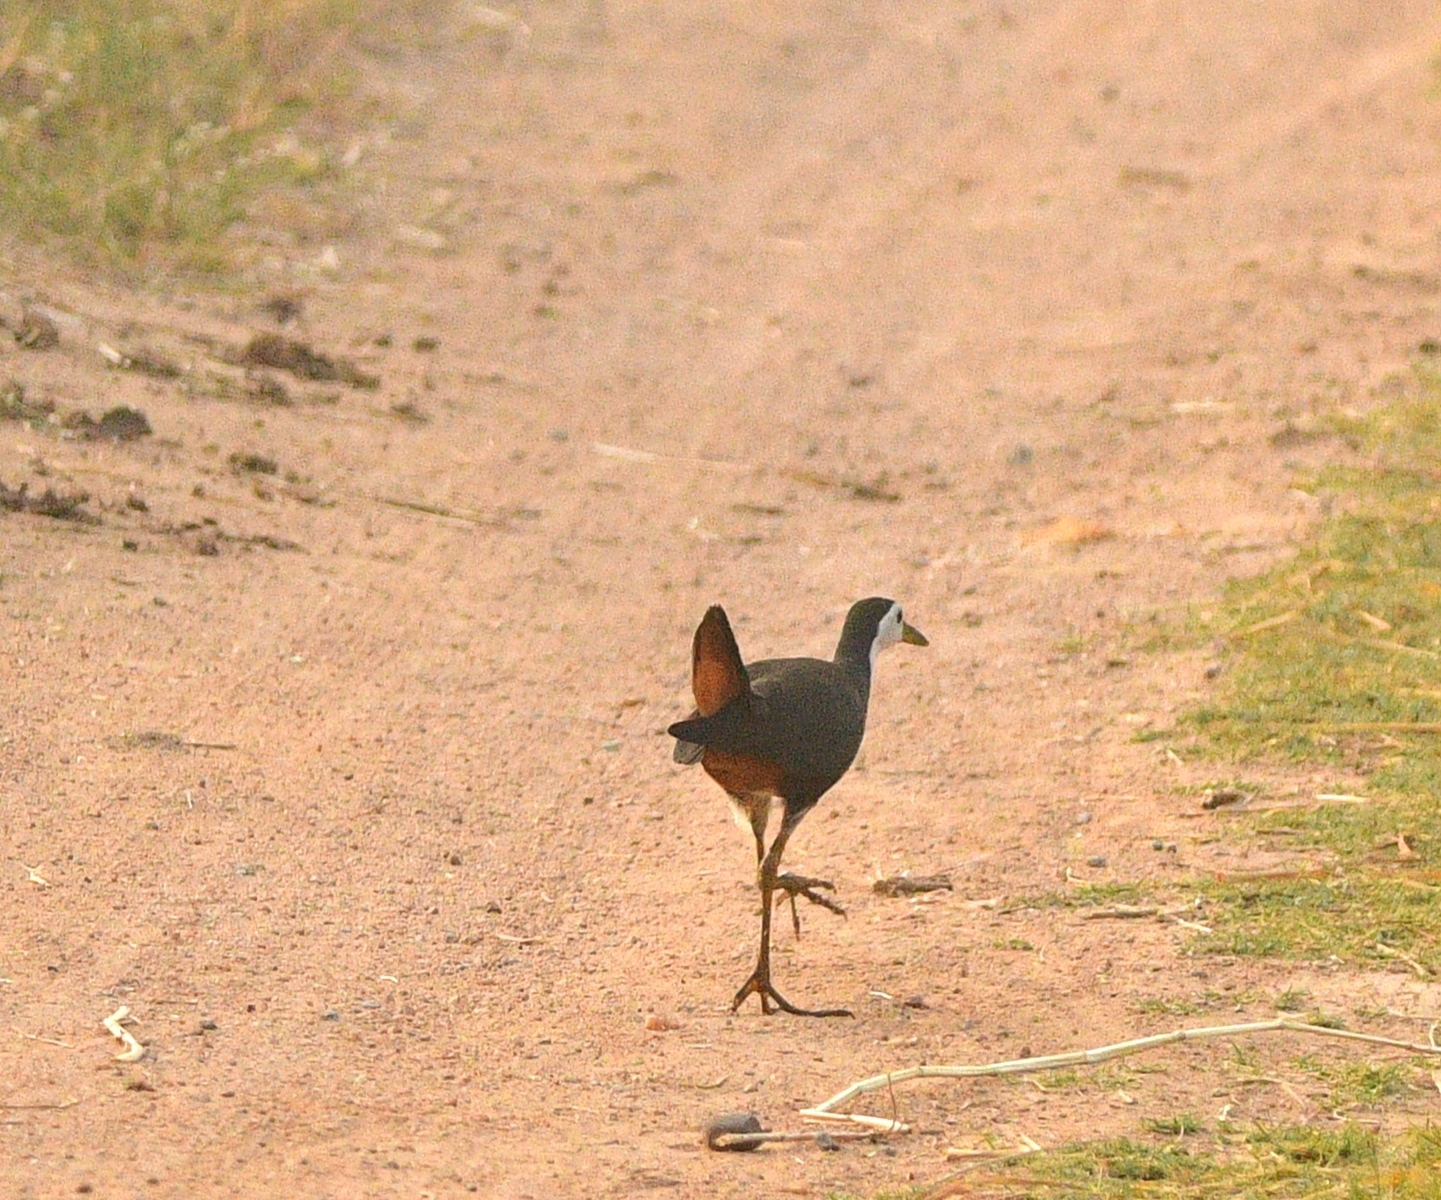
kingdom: Animalia
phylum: Chordata
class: Aves
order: Gruiformes
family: Rallidae
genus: Amaurornis
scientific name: Amaurornis phoenicurus
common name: White-breasted waterhen
